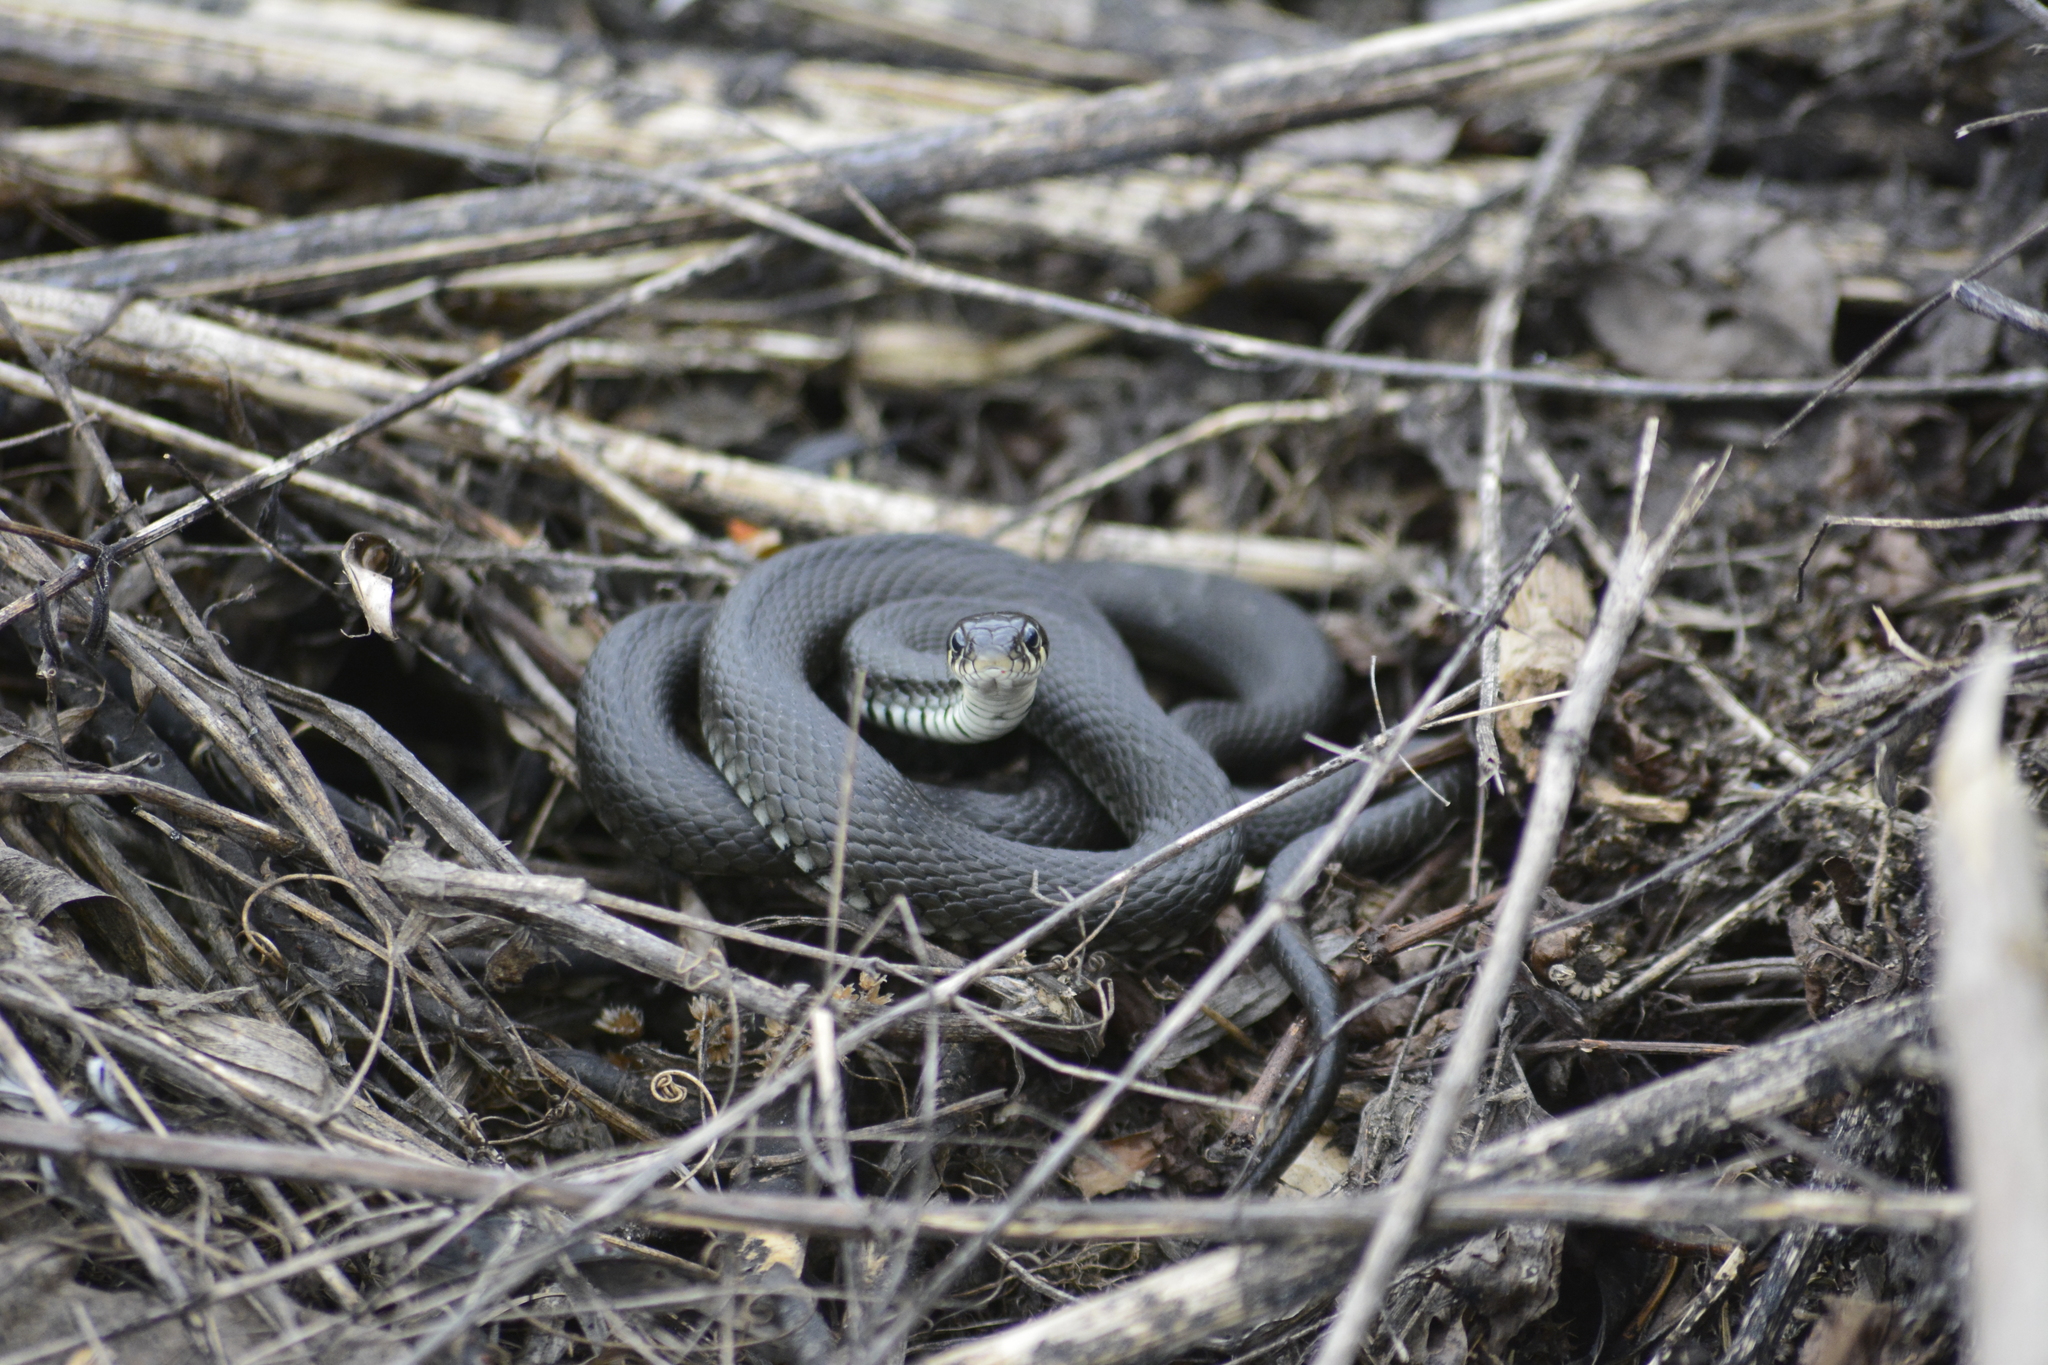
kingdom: Animalia
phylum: Chordata
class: Squamata
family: Colubridae
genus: Natrix
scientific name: Natrix natrix
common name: Grass snake
